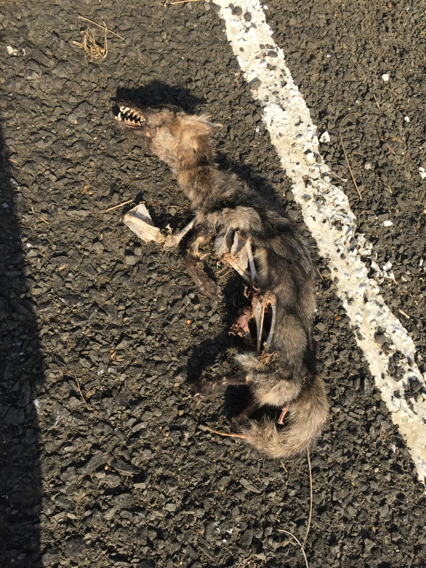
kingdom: Animalia
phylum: Chordata
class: Mammalia
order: Carnivora
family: Canidae
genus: Cerdocyon
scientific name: Cerdocyon thous
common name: Crab-eating fox
